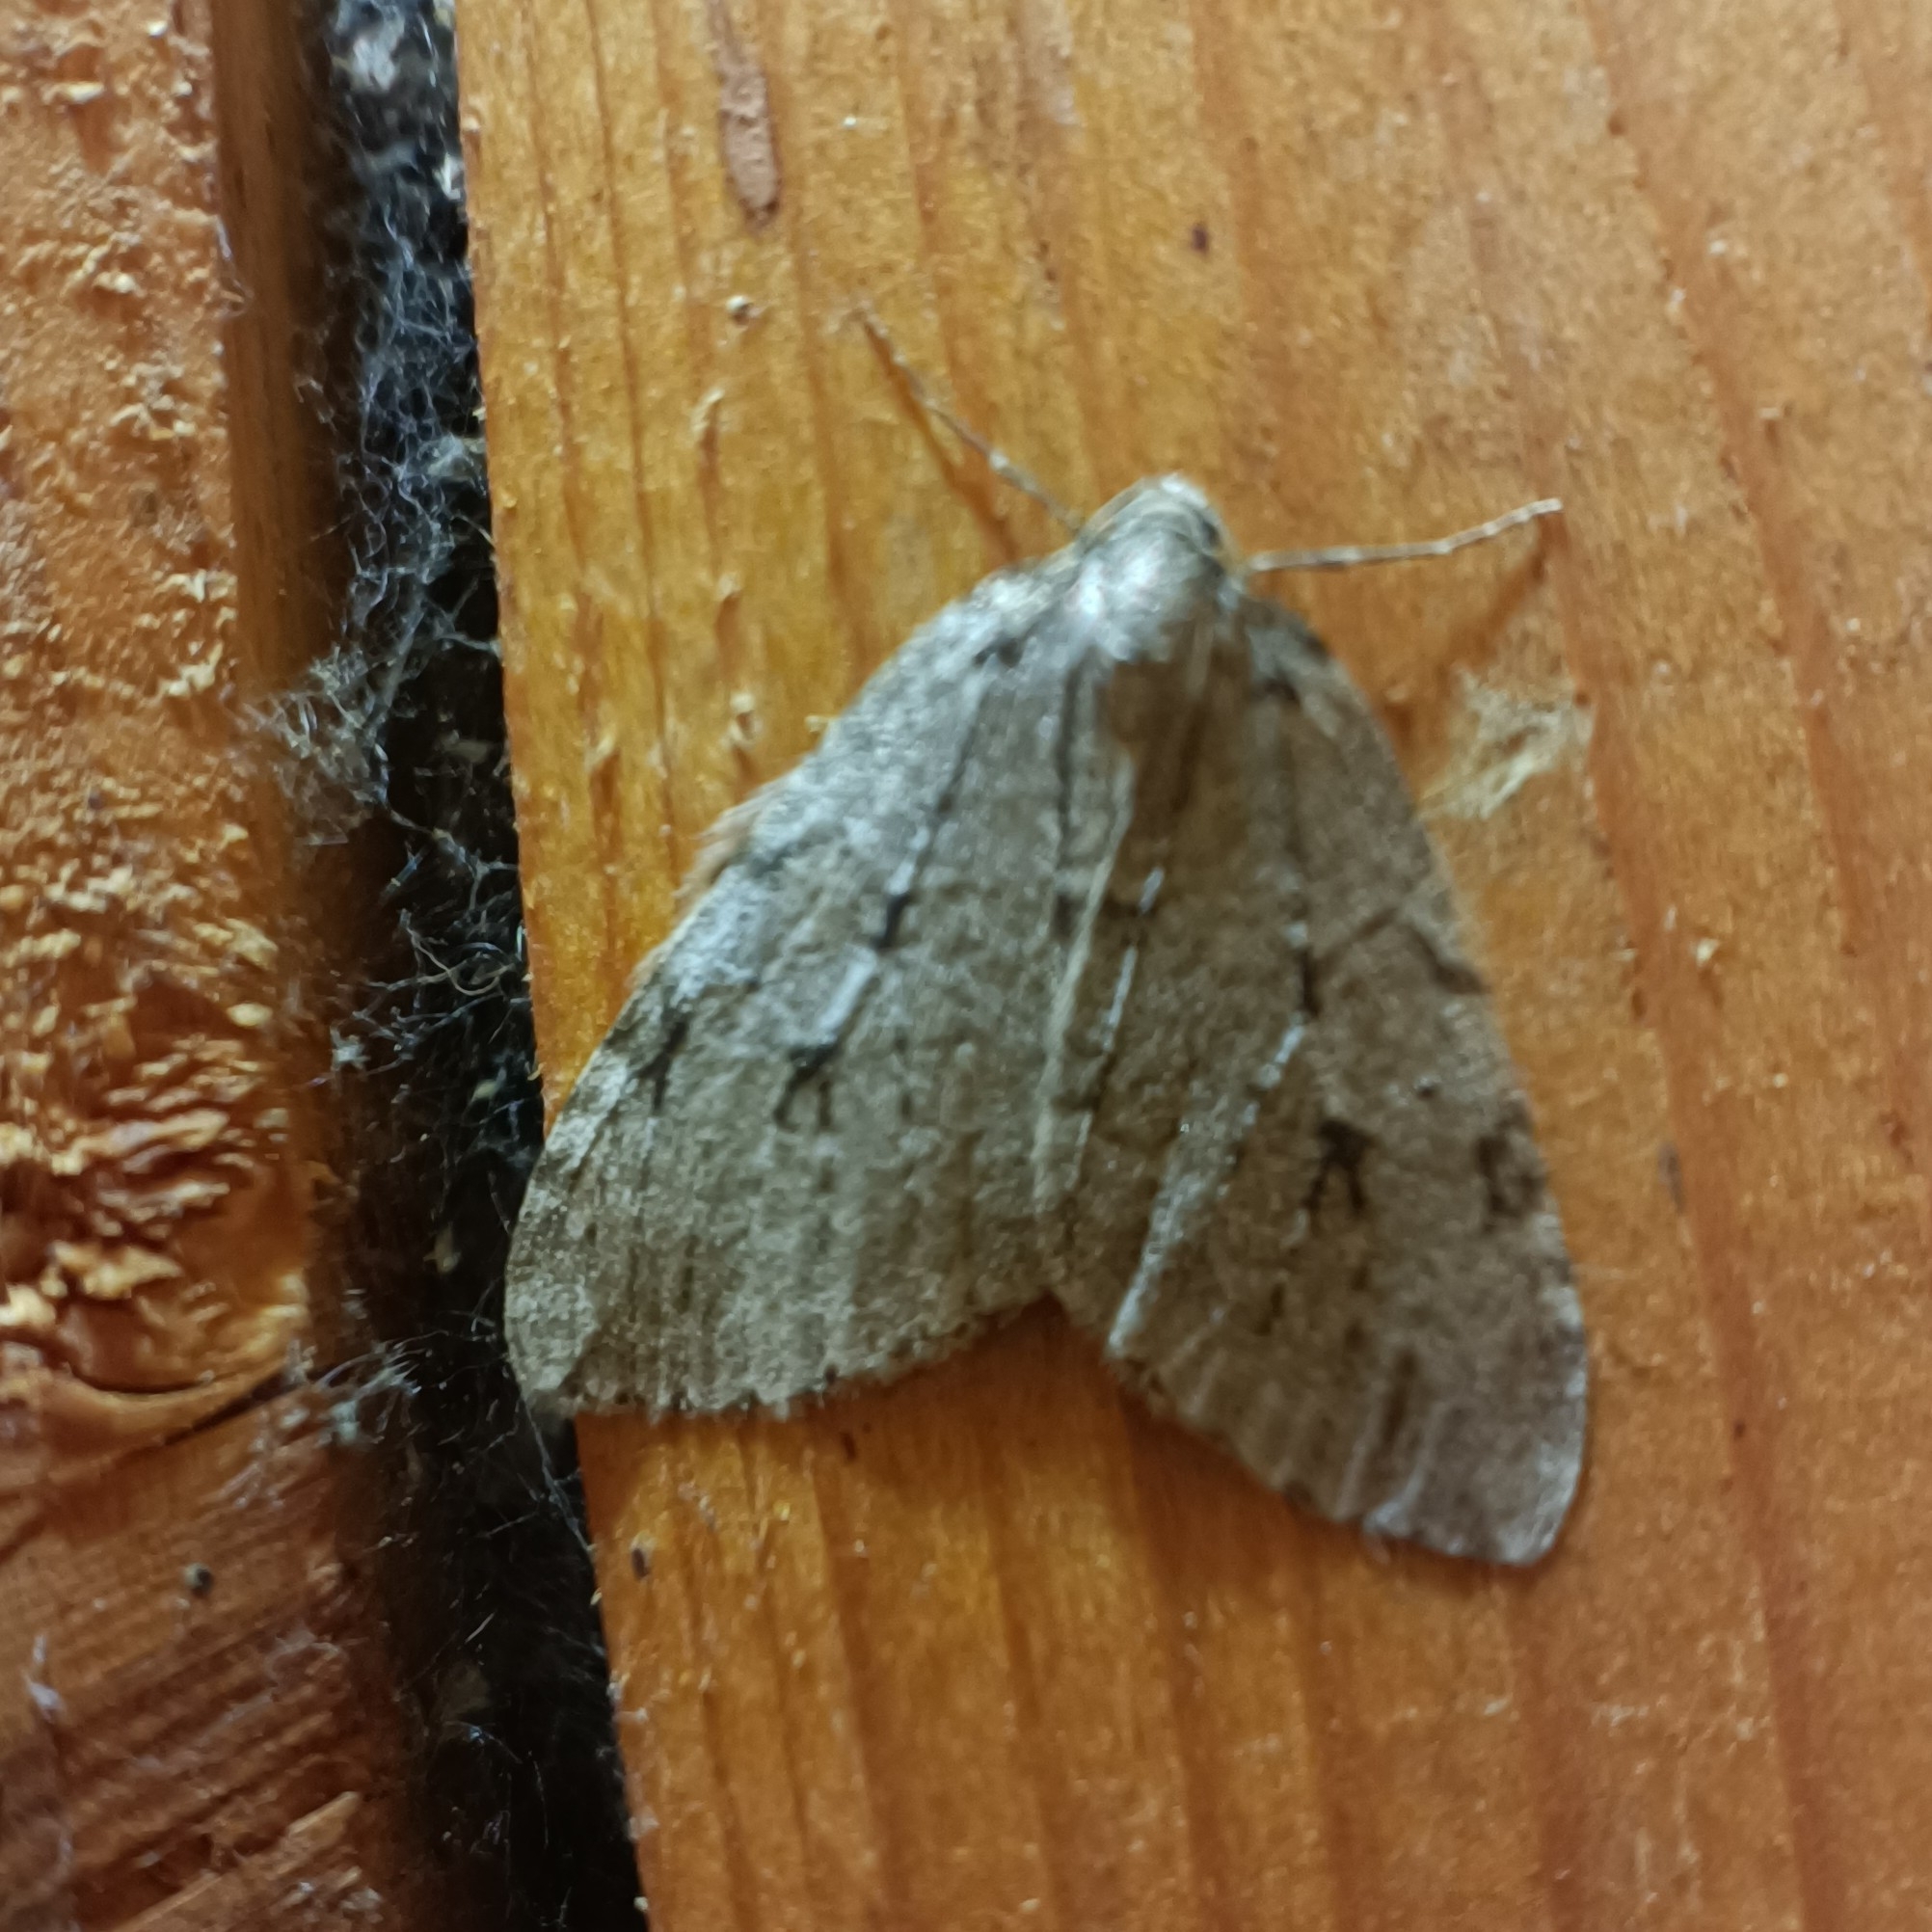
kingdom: Animalia
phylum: Arthropoda
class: Insecta
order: Lepidoptera
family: Geometridae
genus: Epirrita
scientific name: Epirrita autumnata
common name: Autumnal moth
